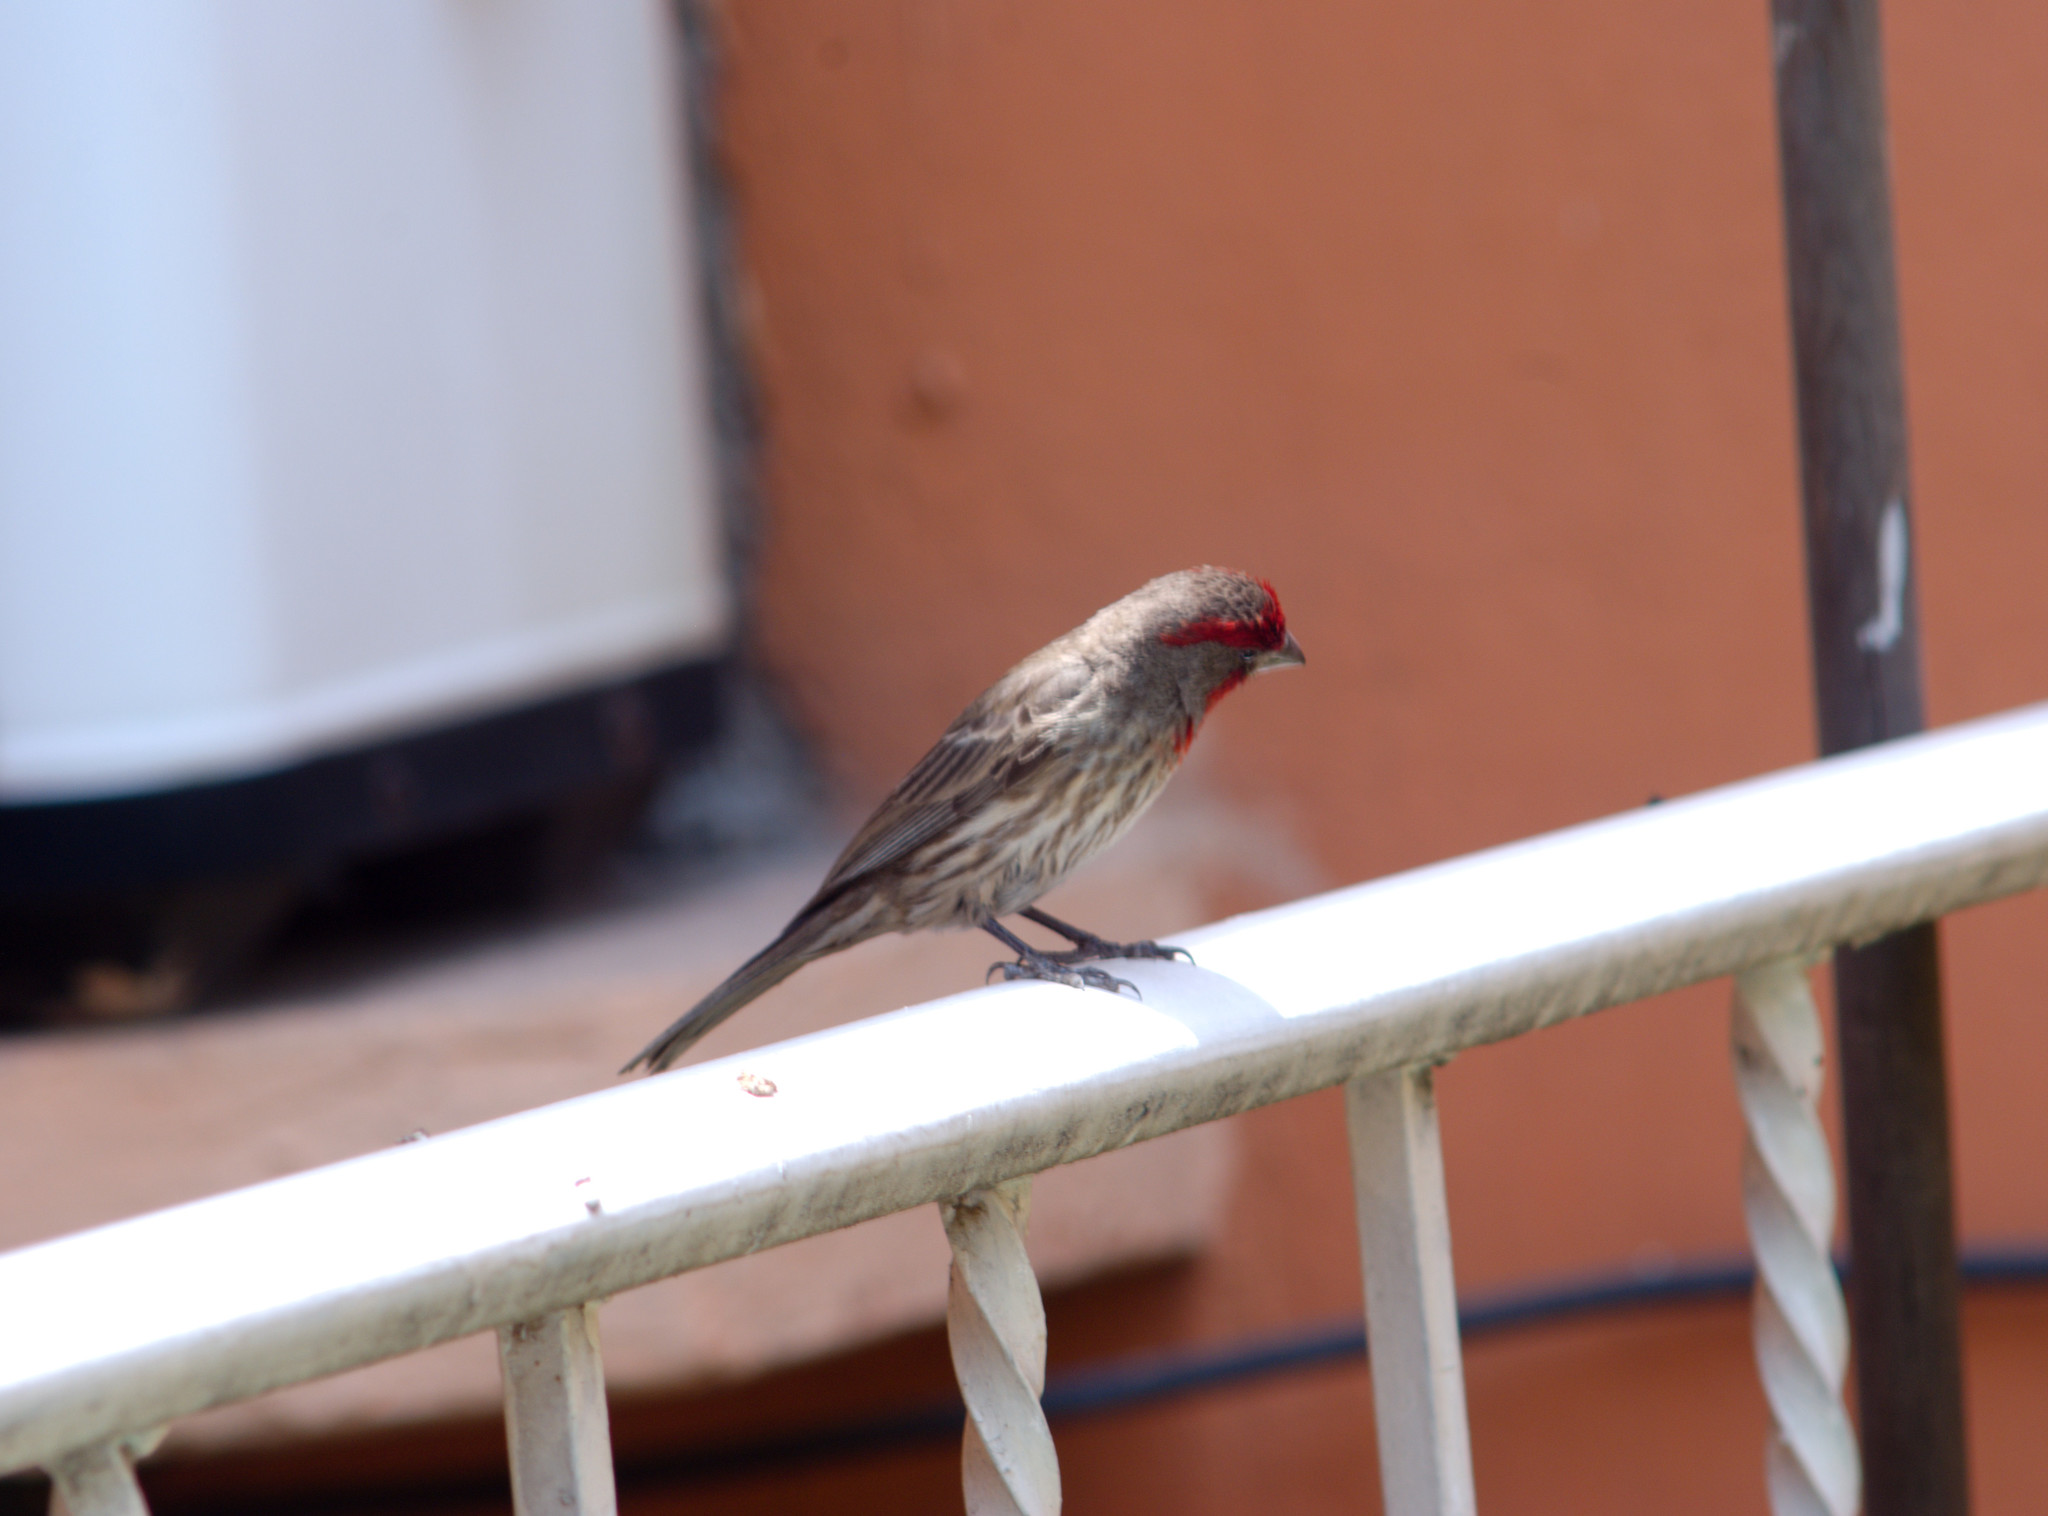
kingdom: Animalia
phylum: Chordata
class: Aves
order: Passeriformes
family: Fringillidae
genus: Haemorhous
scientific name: Haemorhous mexicanus
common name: House finch
